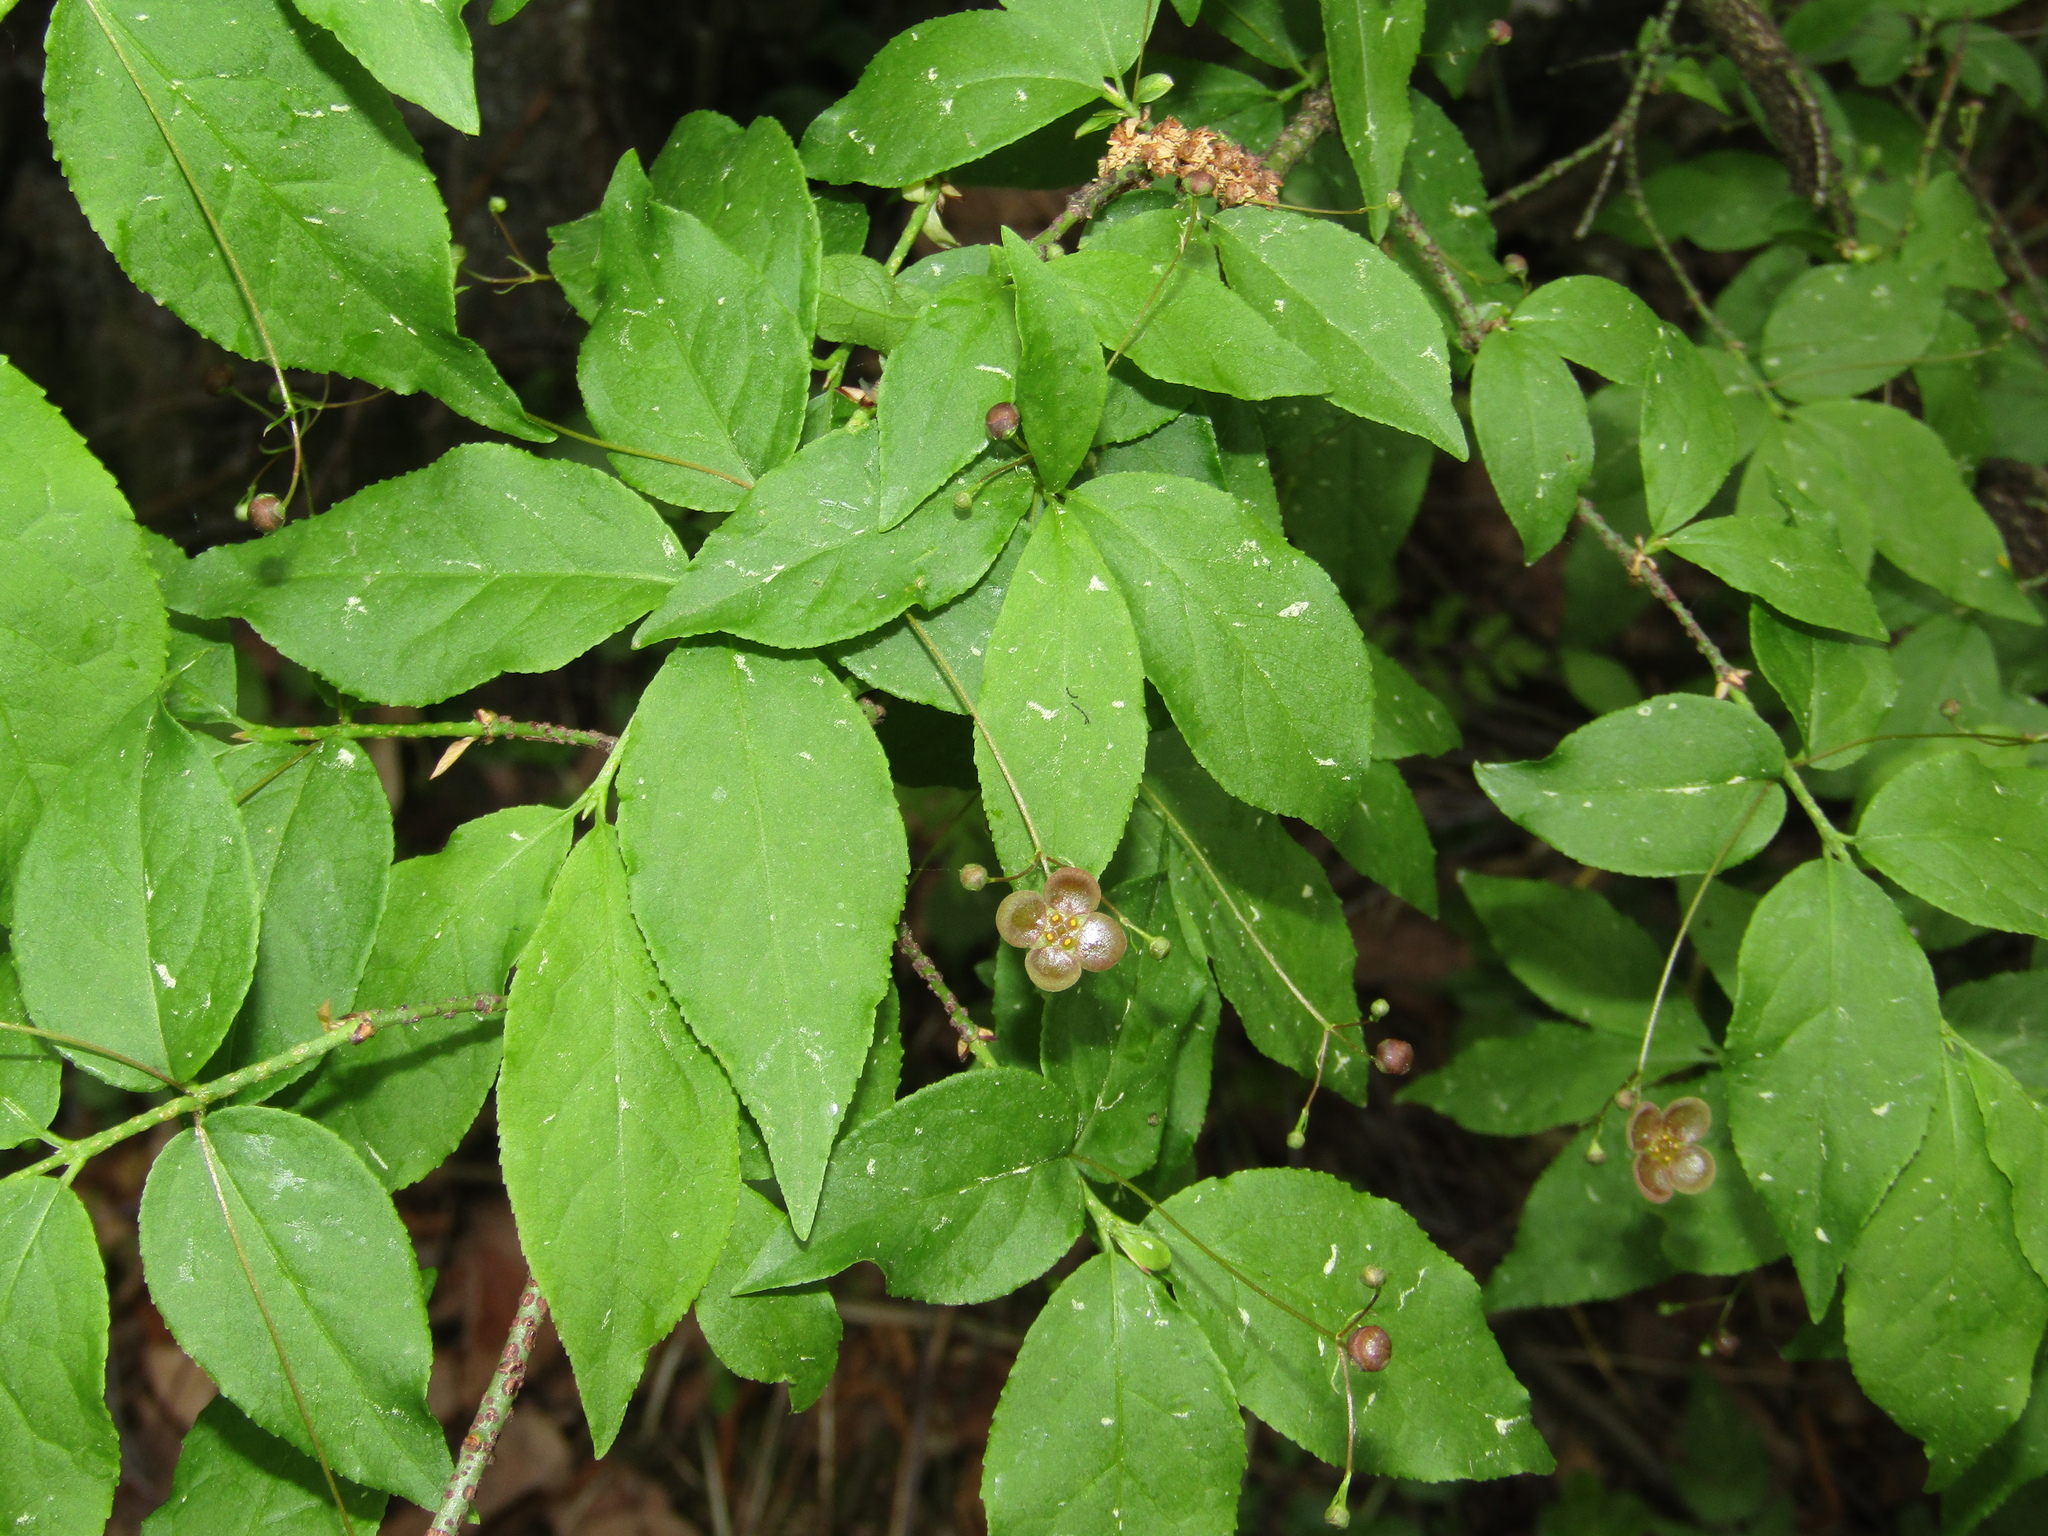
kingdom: Plantae
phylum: Tracheophyta
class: Magnoliopsida
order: Celastrales
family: Celastraceae
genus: Euonymus
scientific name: Euonymus verrucosus
